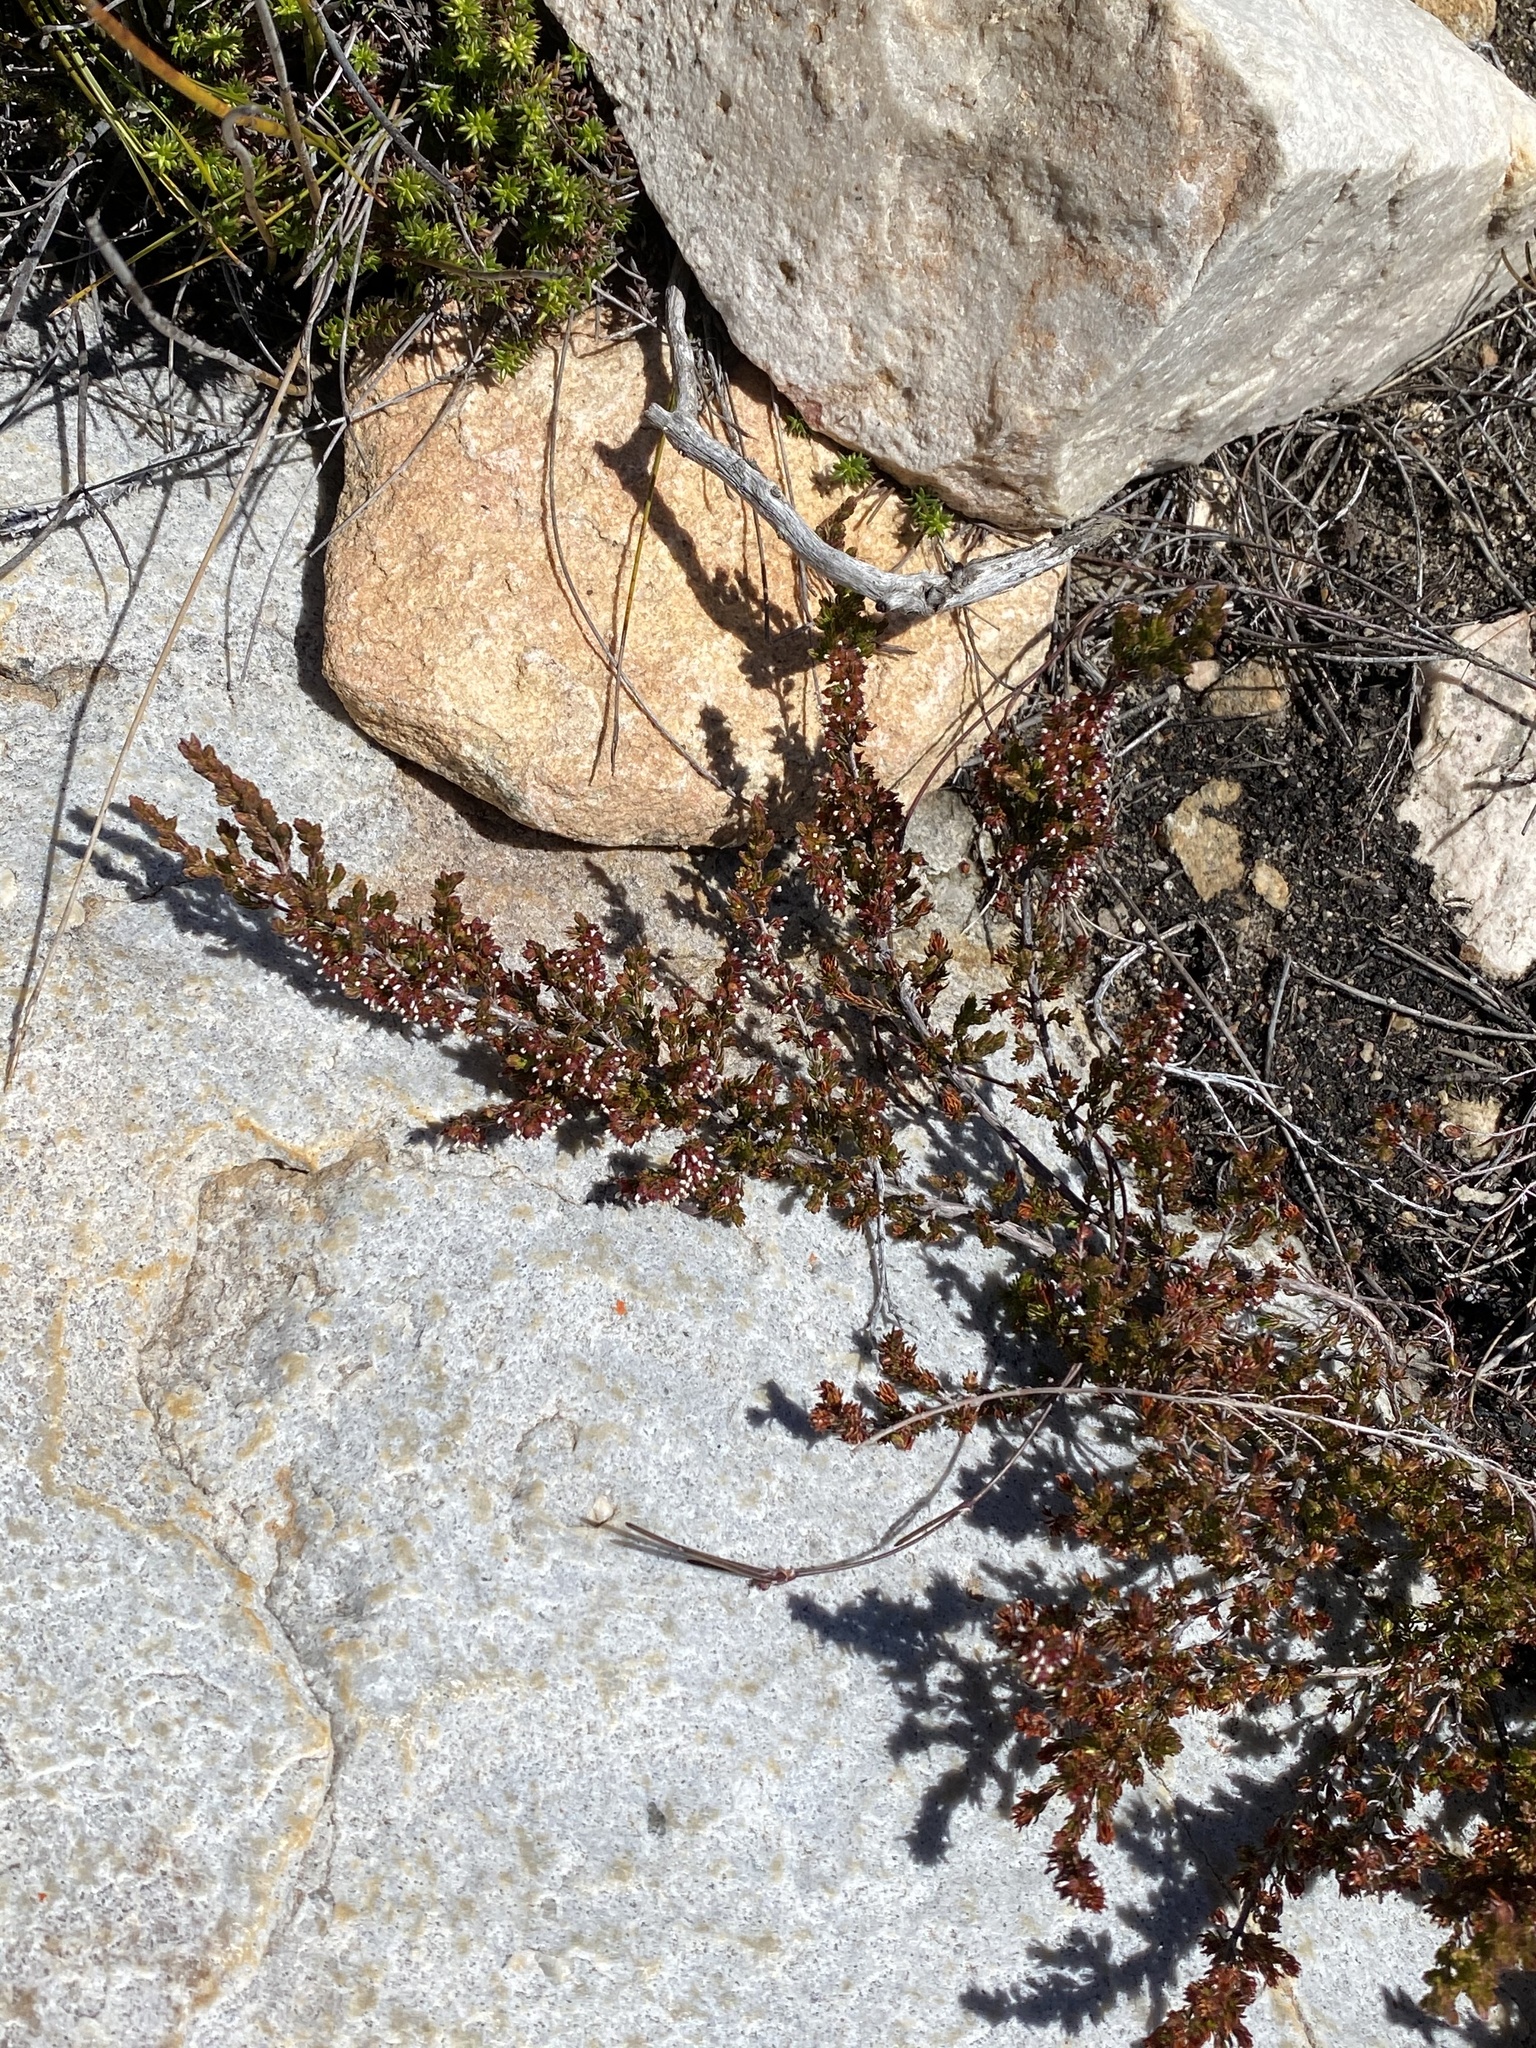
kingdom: Plantae
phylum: Tracheophyta
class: Magnoliopsida
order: Ericales
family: Ericaceae
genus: Erica
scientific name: Erica anguliger
